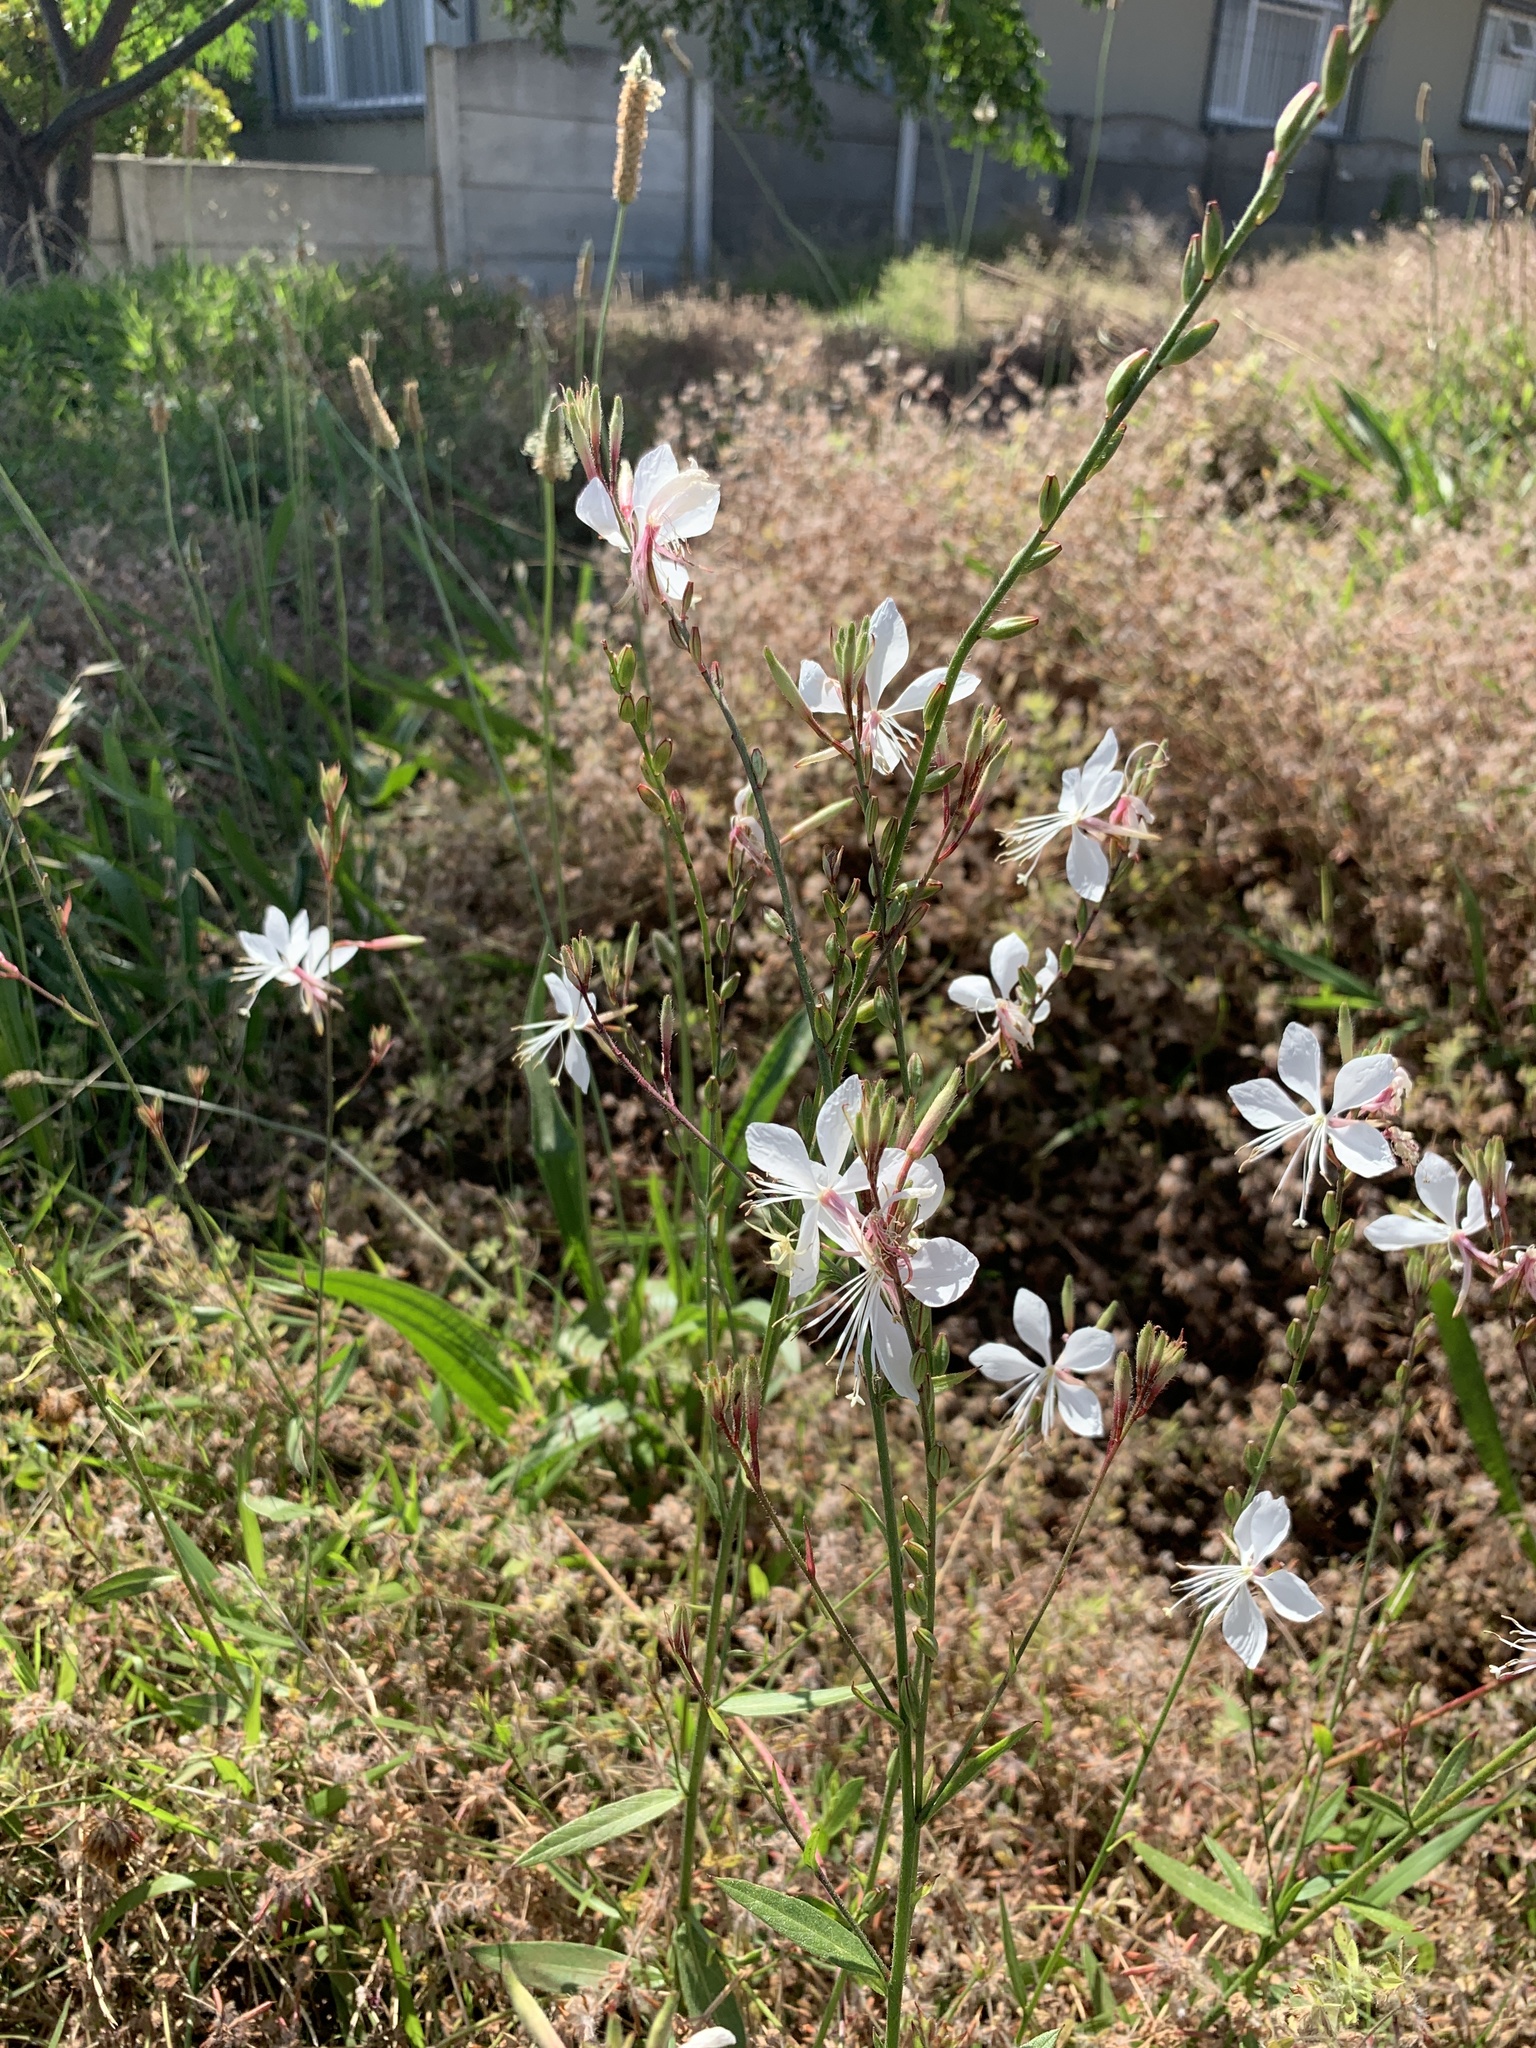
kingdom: Plantae
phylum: Tracheophyta
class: Magnoliopsida
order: Myrtales
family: Onagraceae
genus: Oenothera
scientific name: Oenothera lindheimeri
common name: Lindheimer's beeblossom
